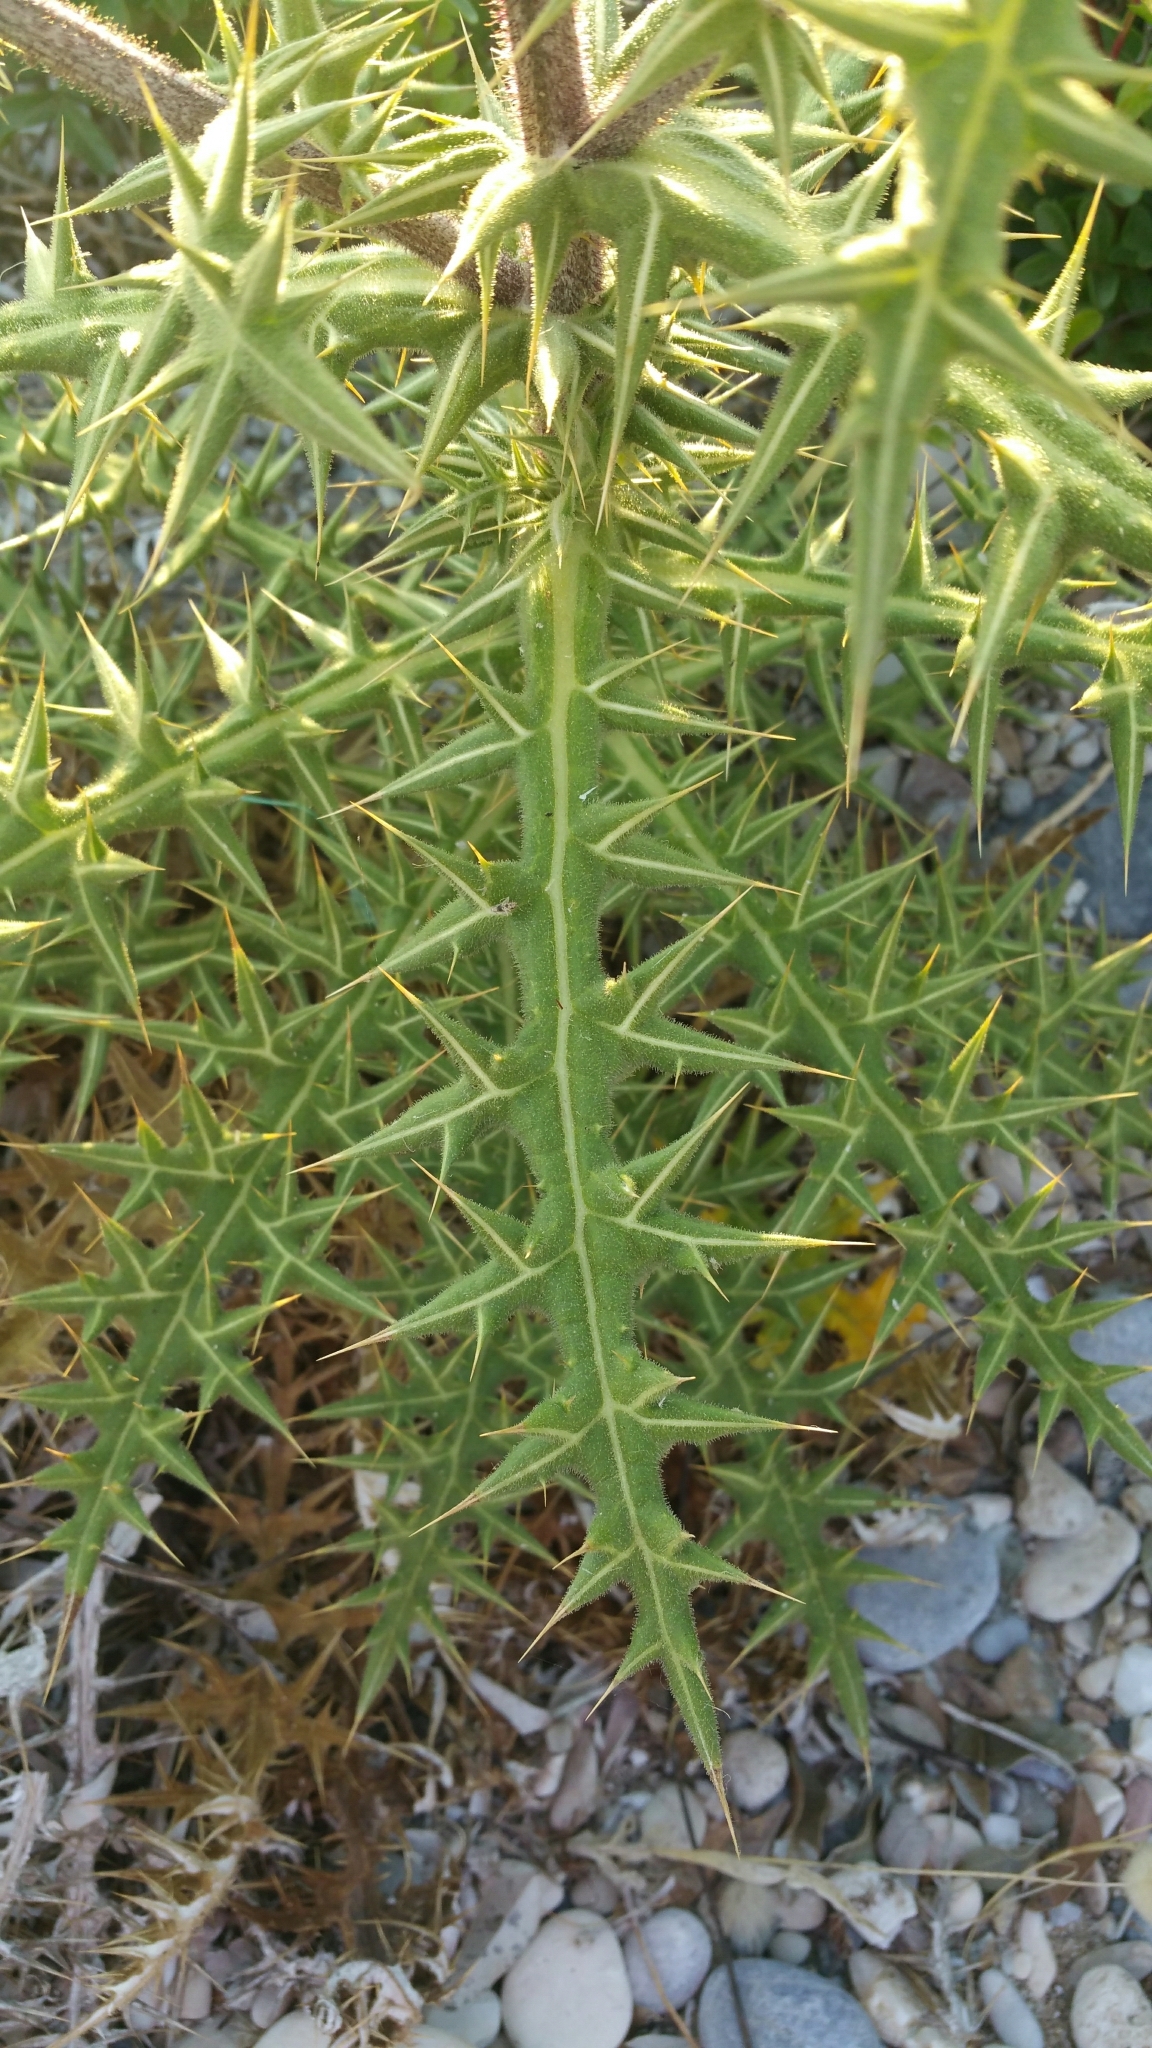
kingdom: Plantae
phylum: Tracheophyta
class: Magnoliopsida
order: Asterales
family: Asteraceae
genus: Echinops
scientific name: Echinops spinosissimus
